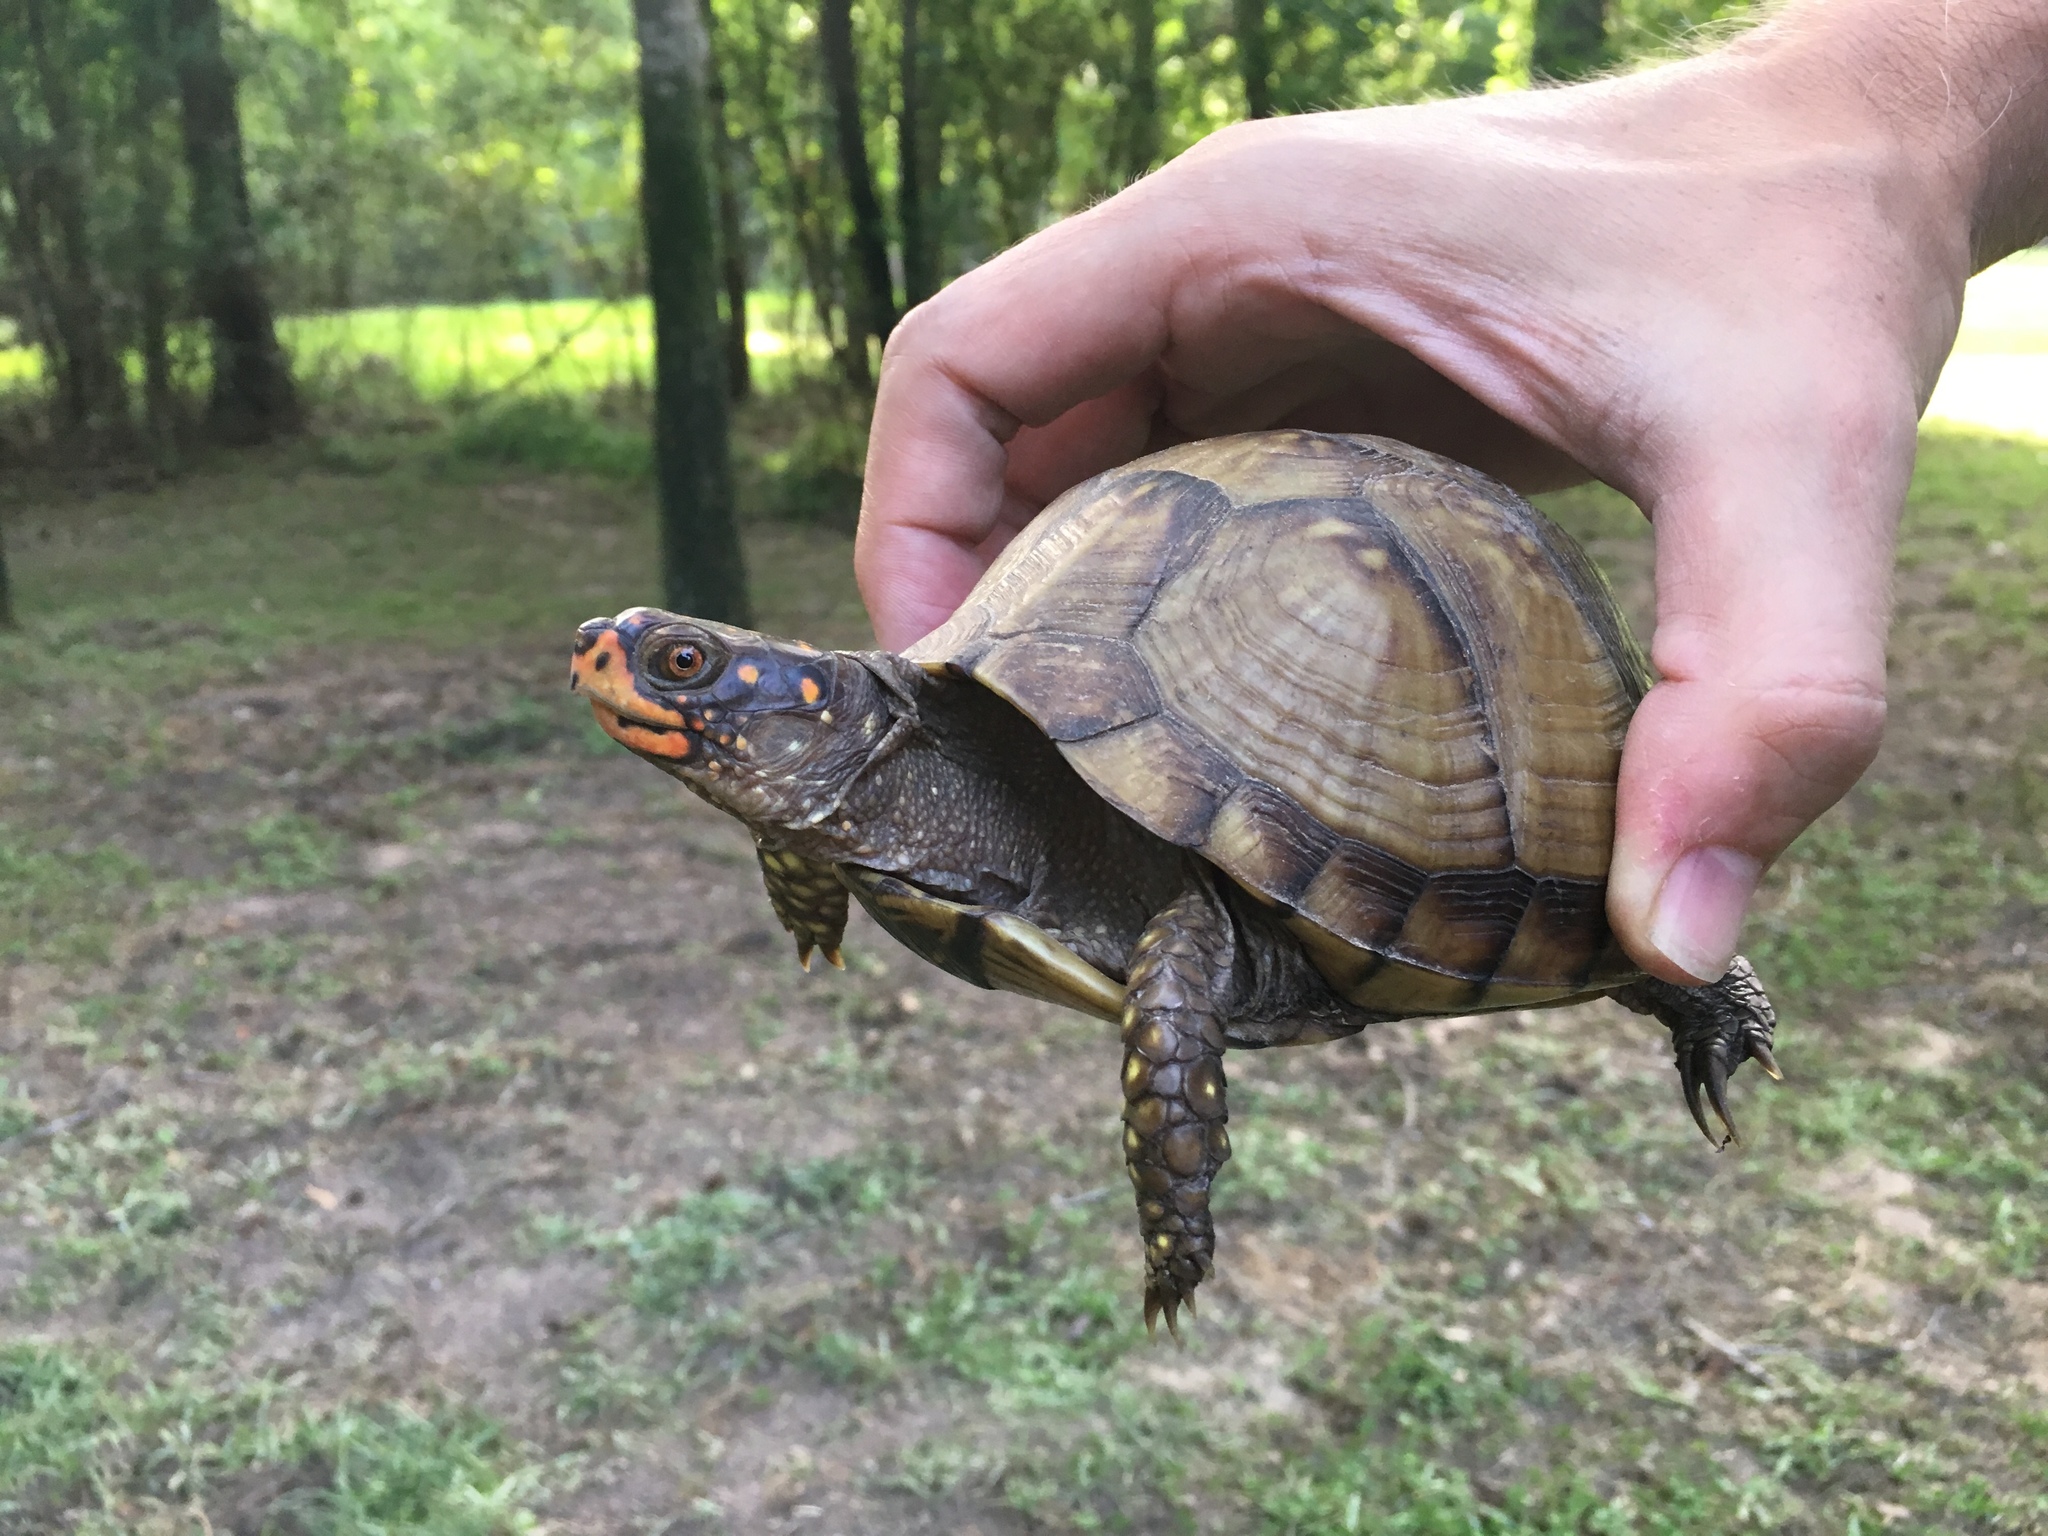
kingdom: Animalia
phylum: Chordata
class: Testudines
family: Emydidae
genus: Terrapene
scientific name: Terrapene carolina
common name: Common box turtle
